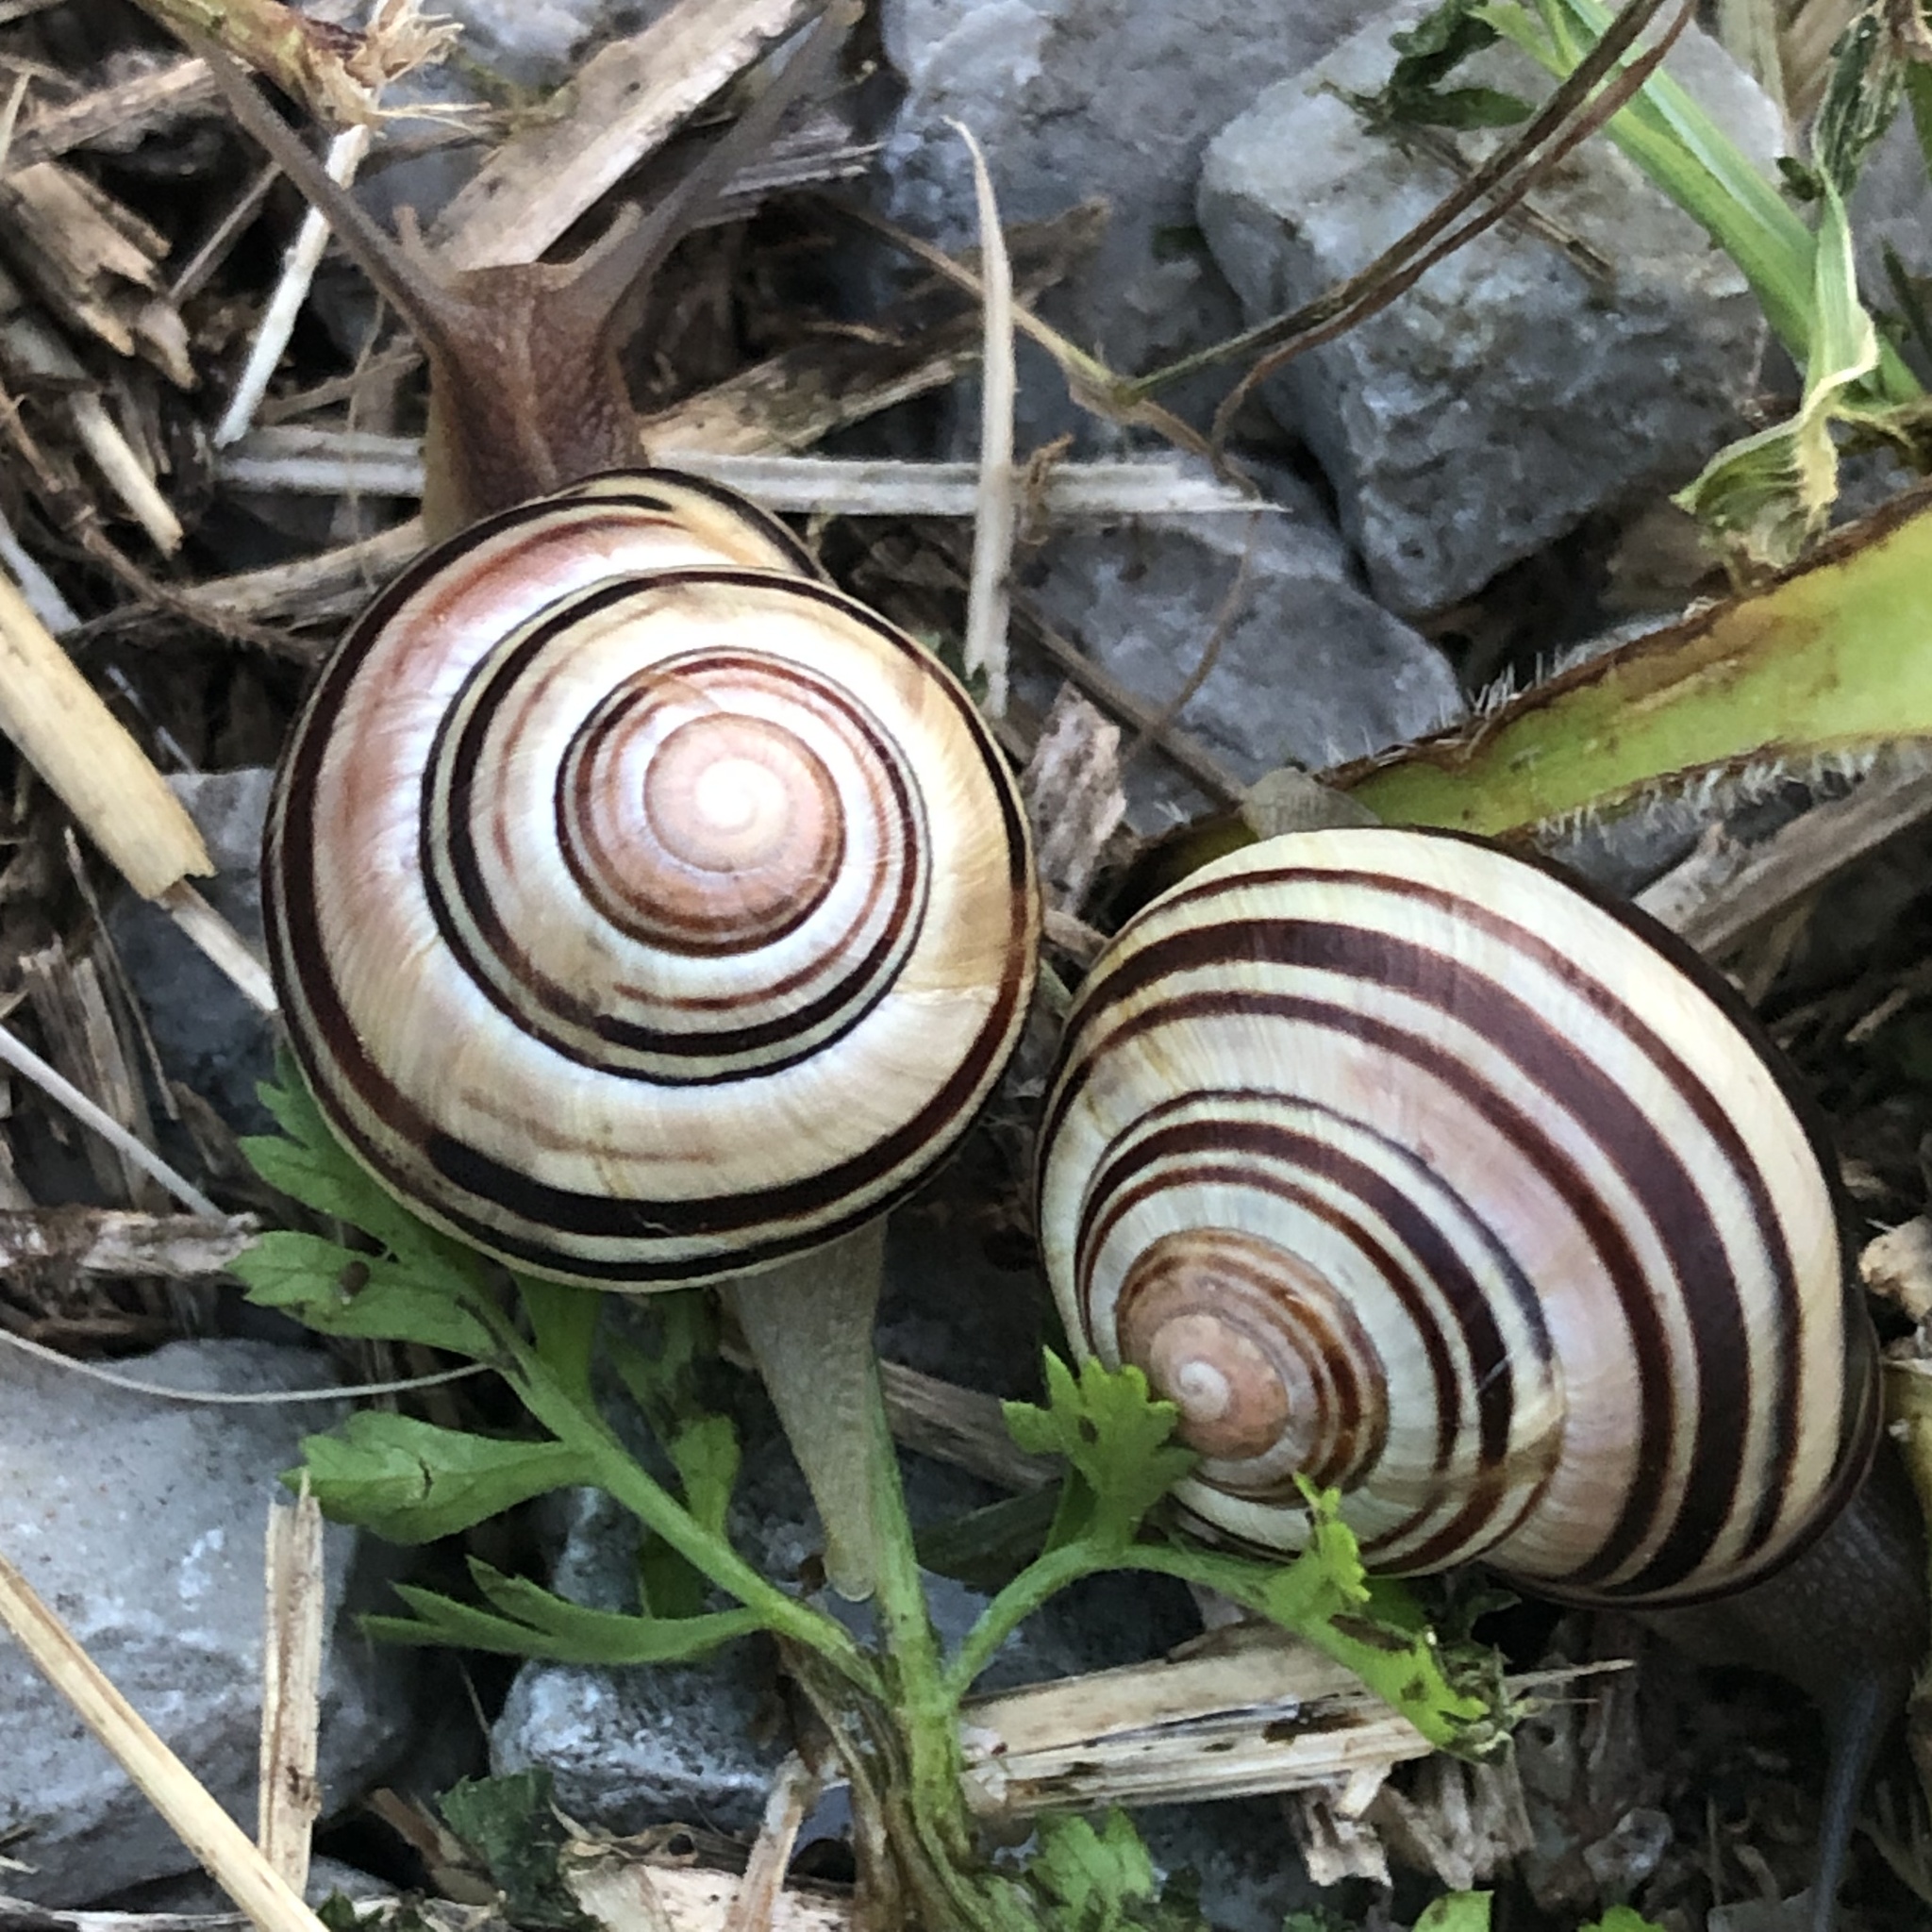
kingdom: Animalia
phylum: Mollusca
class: Gastropoda
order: Stylommatophora
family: Helicidae
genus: Cepaea
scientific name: Cepaea nemoralis
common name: Grovesnail
